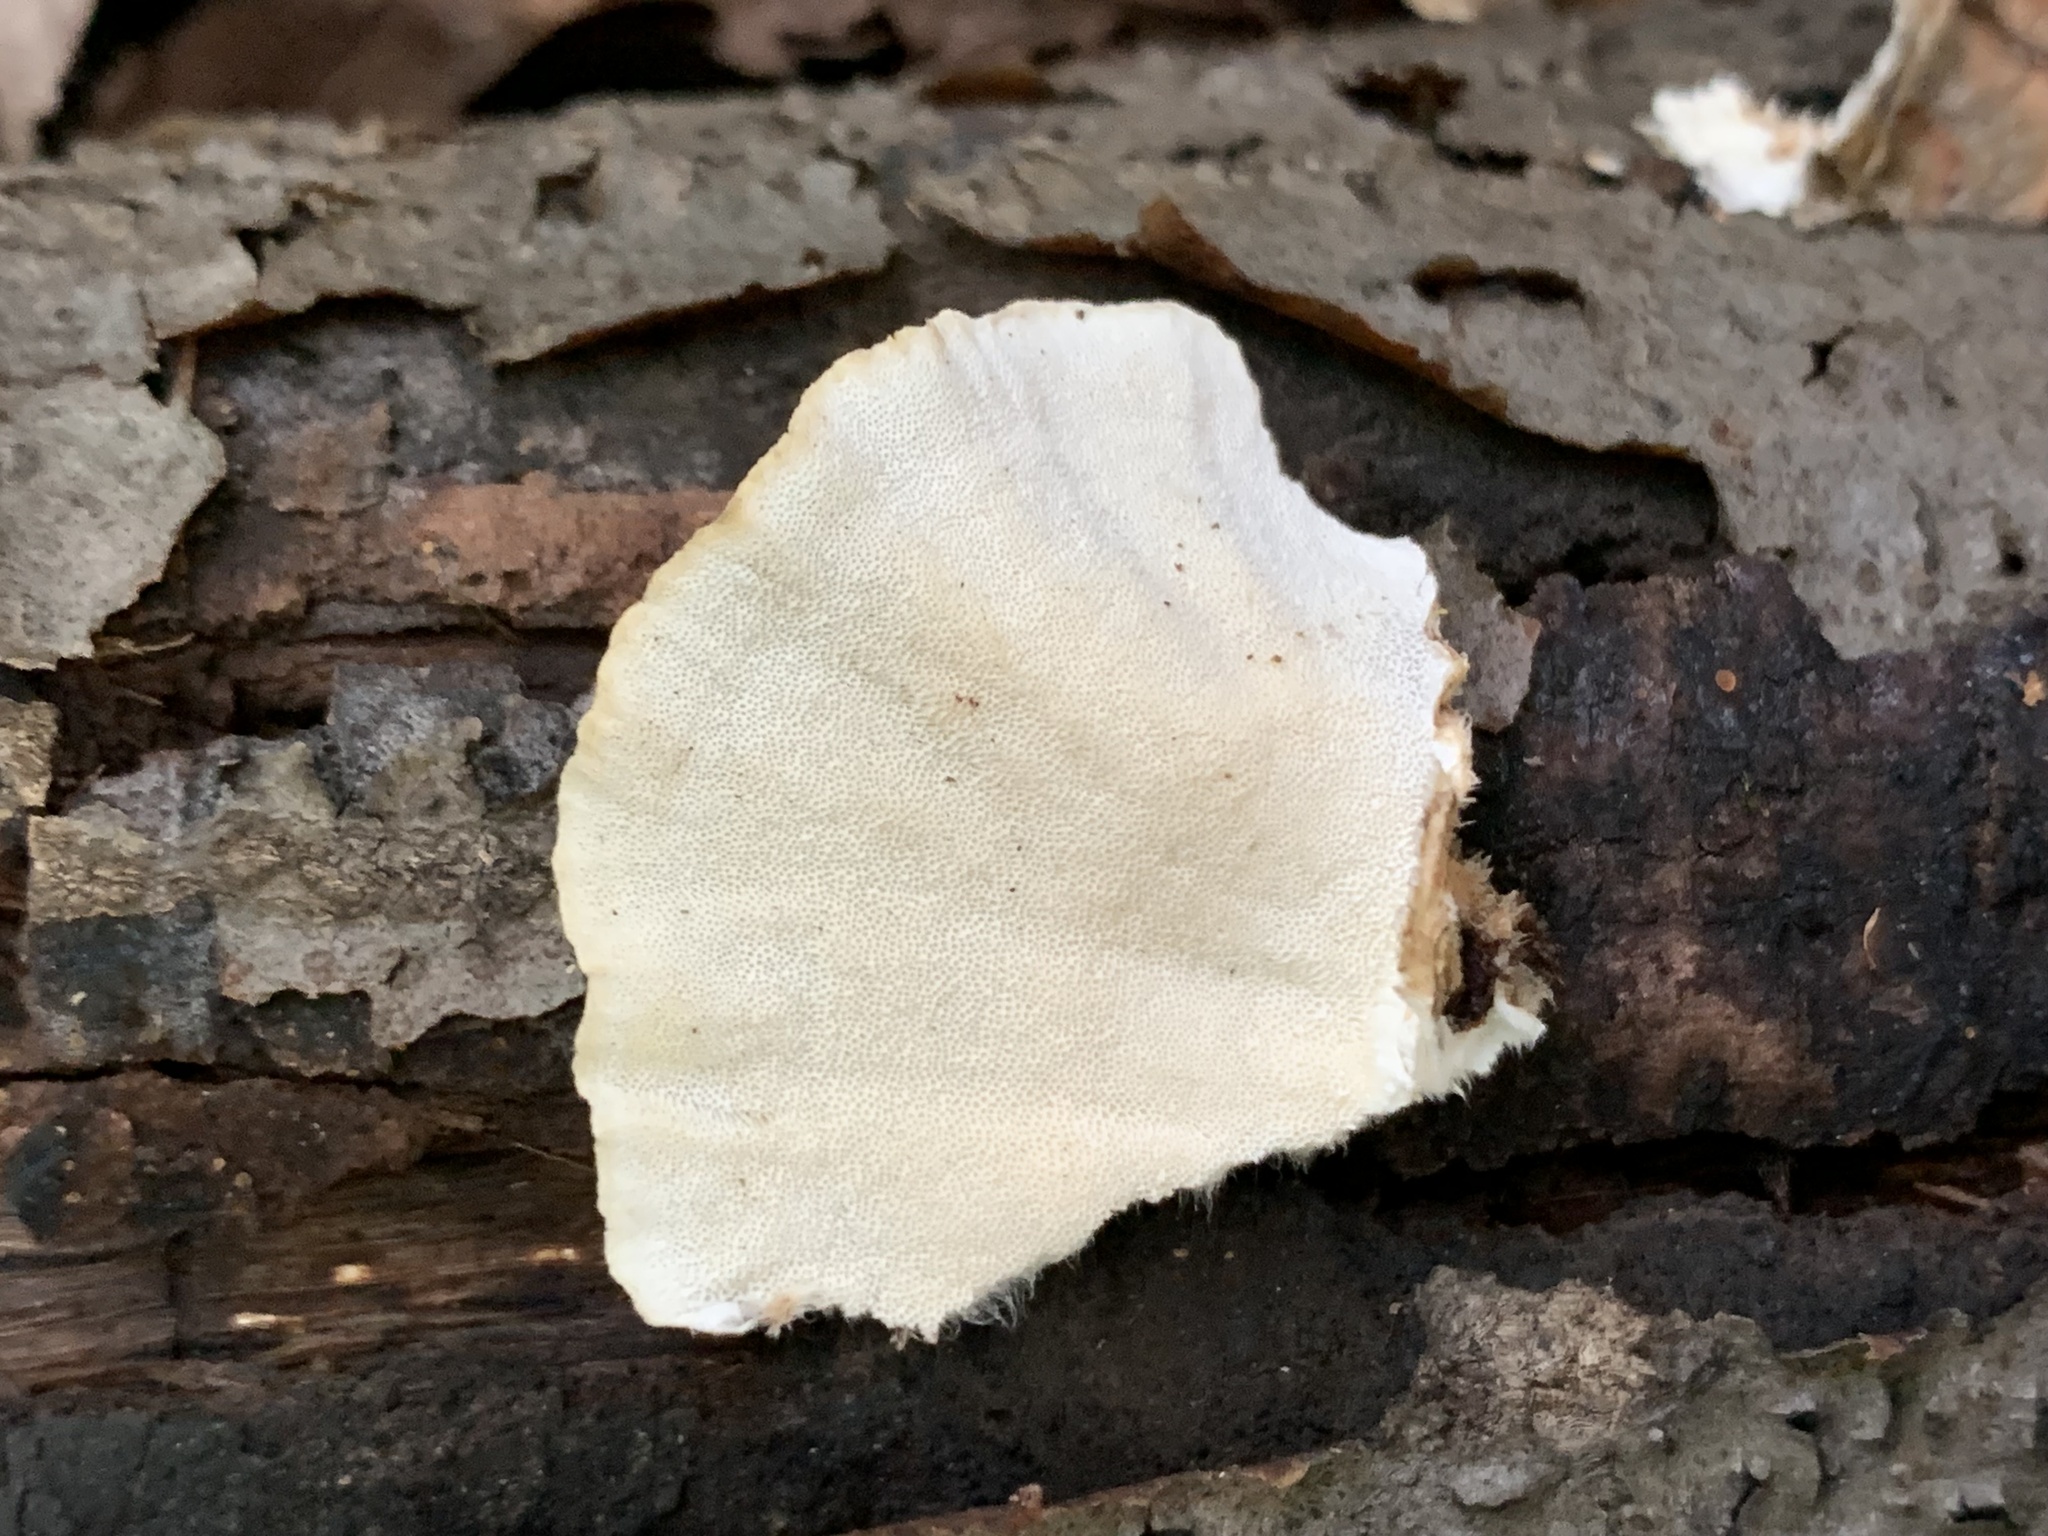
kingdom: Fungi
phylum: Basidiomycota
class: Agaricomycetes
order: Polyporales
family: Polyporaceae
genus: Trametes
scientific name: Trametes versicolor
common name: Turkeytail
